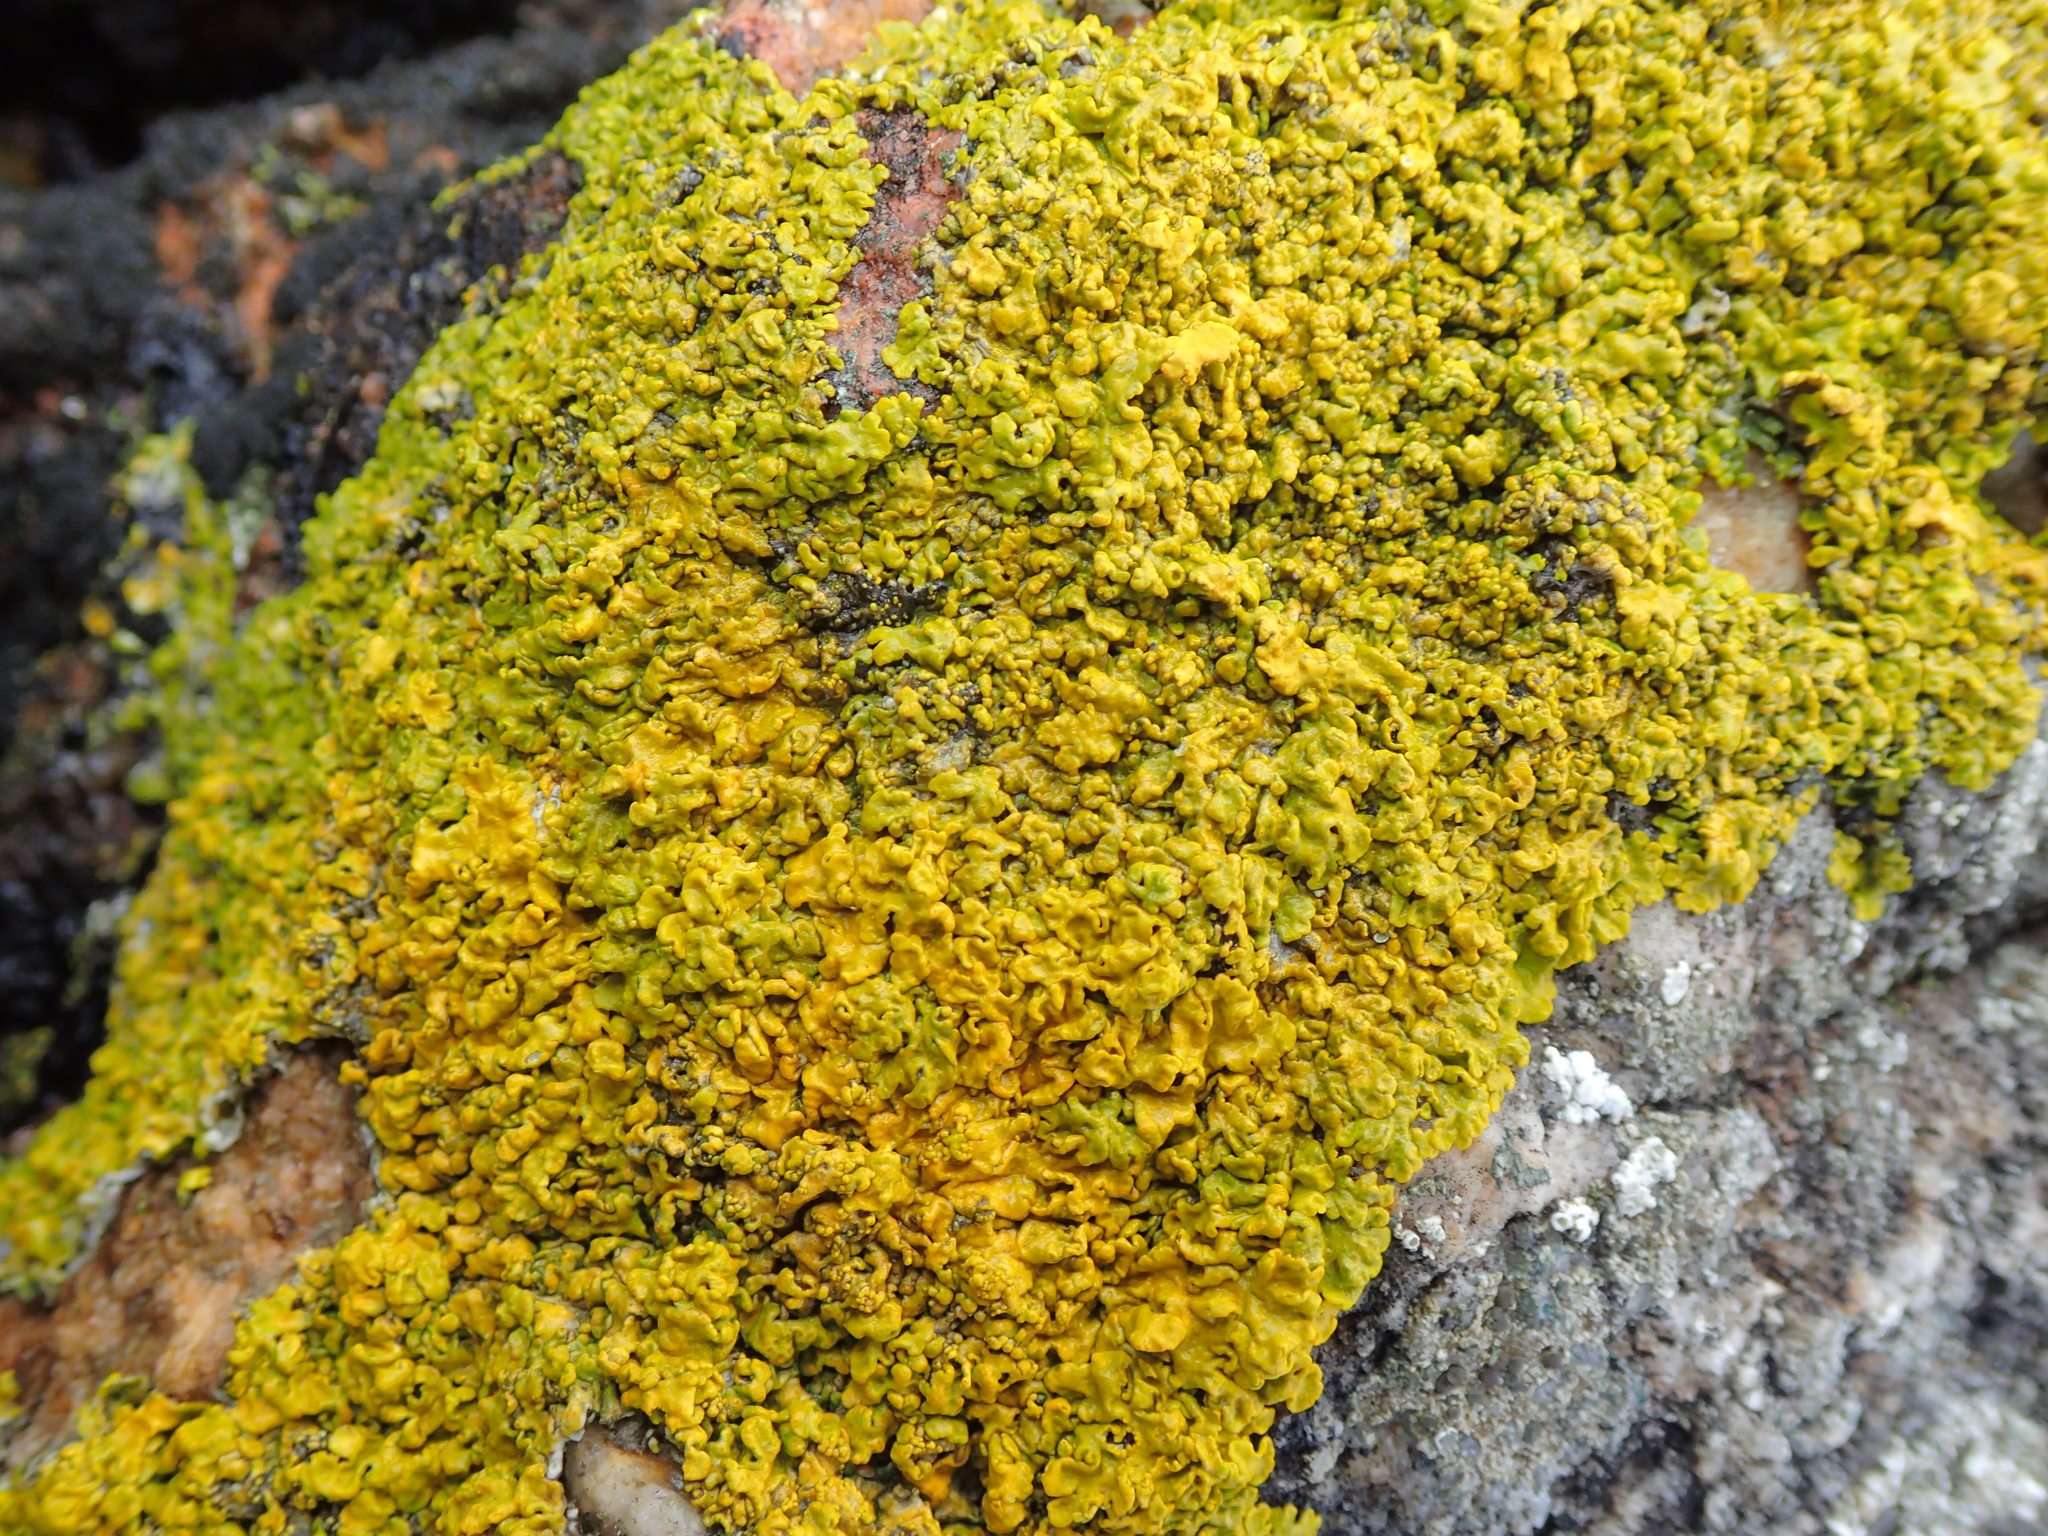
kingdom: Fungi
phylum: Ascomycota
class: Lecanoromycetes
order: Teloschistales
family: Teloschistaceae
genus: Xanthoria
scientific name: Xanthoria parietina
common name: Common orange lichen
